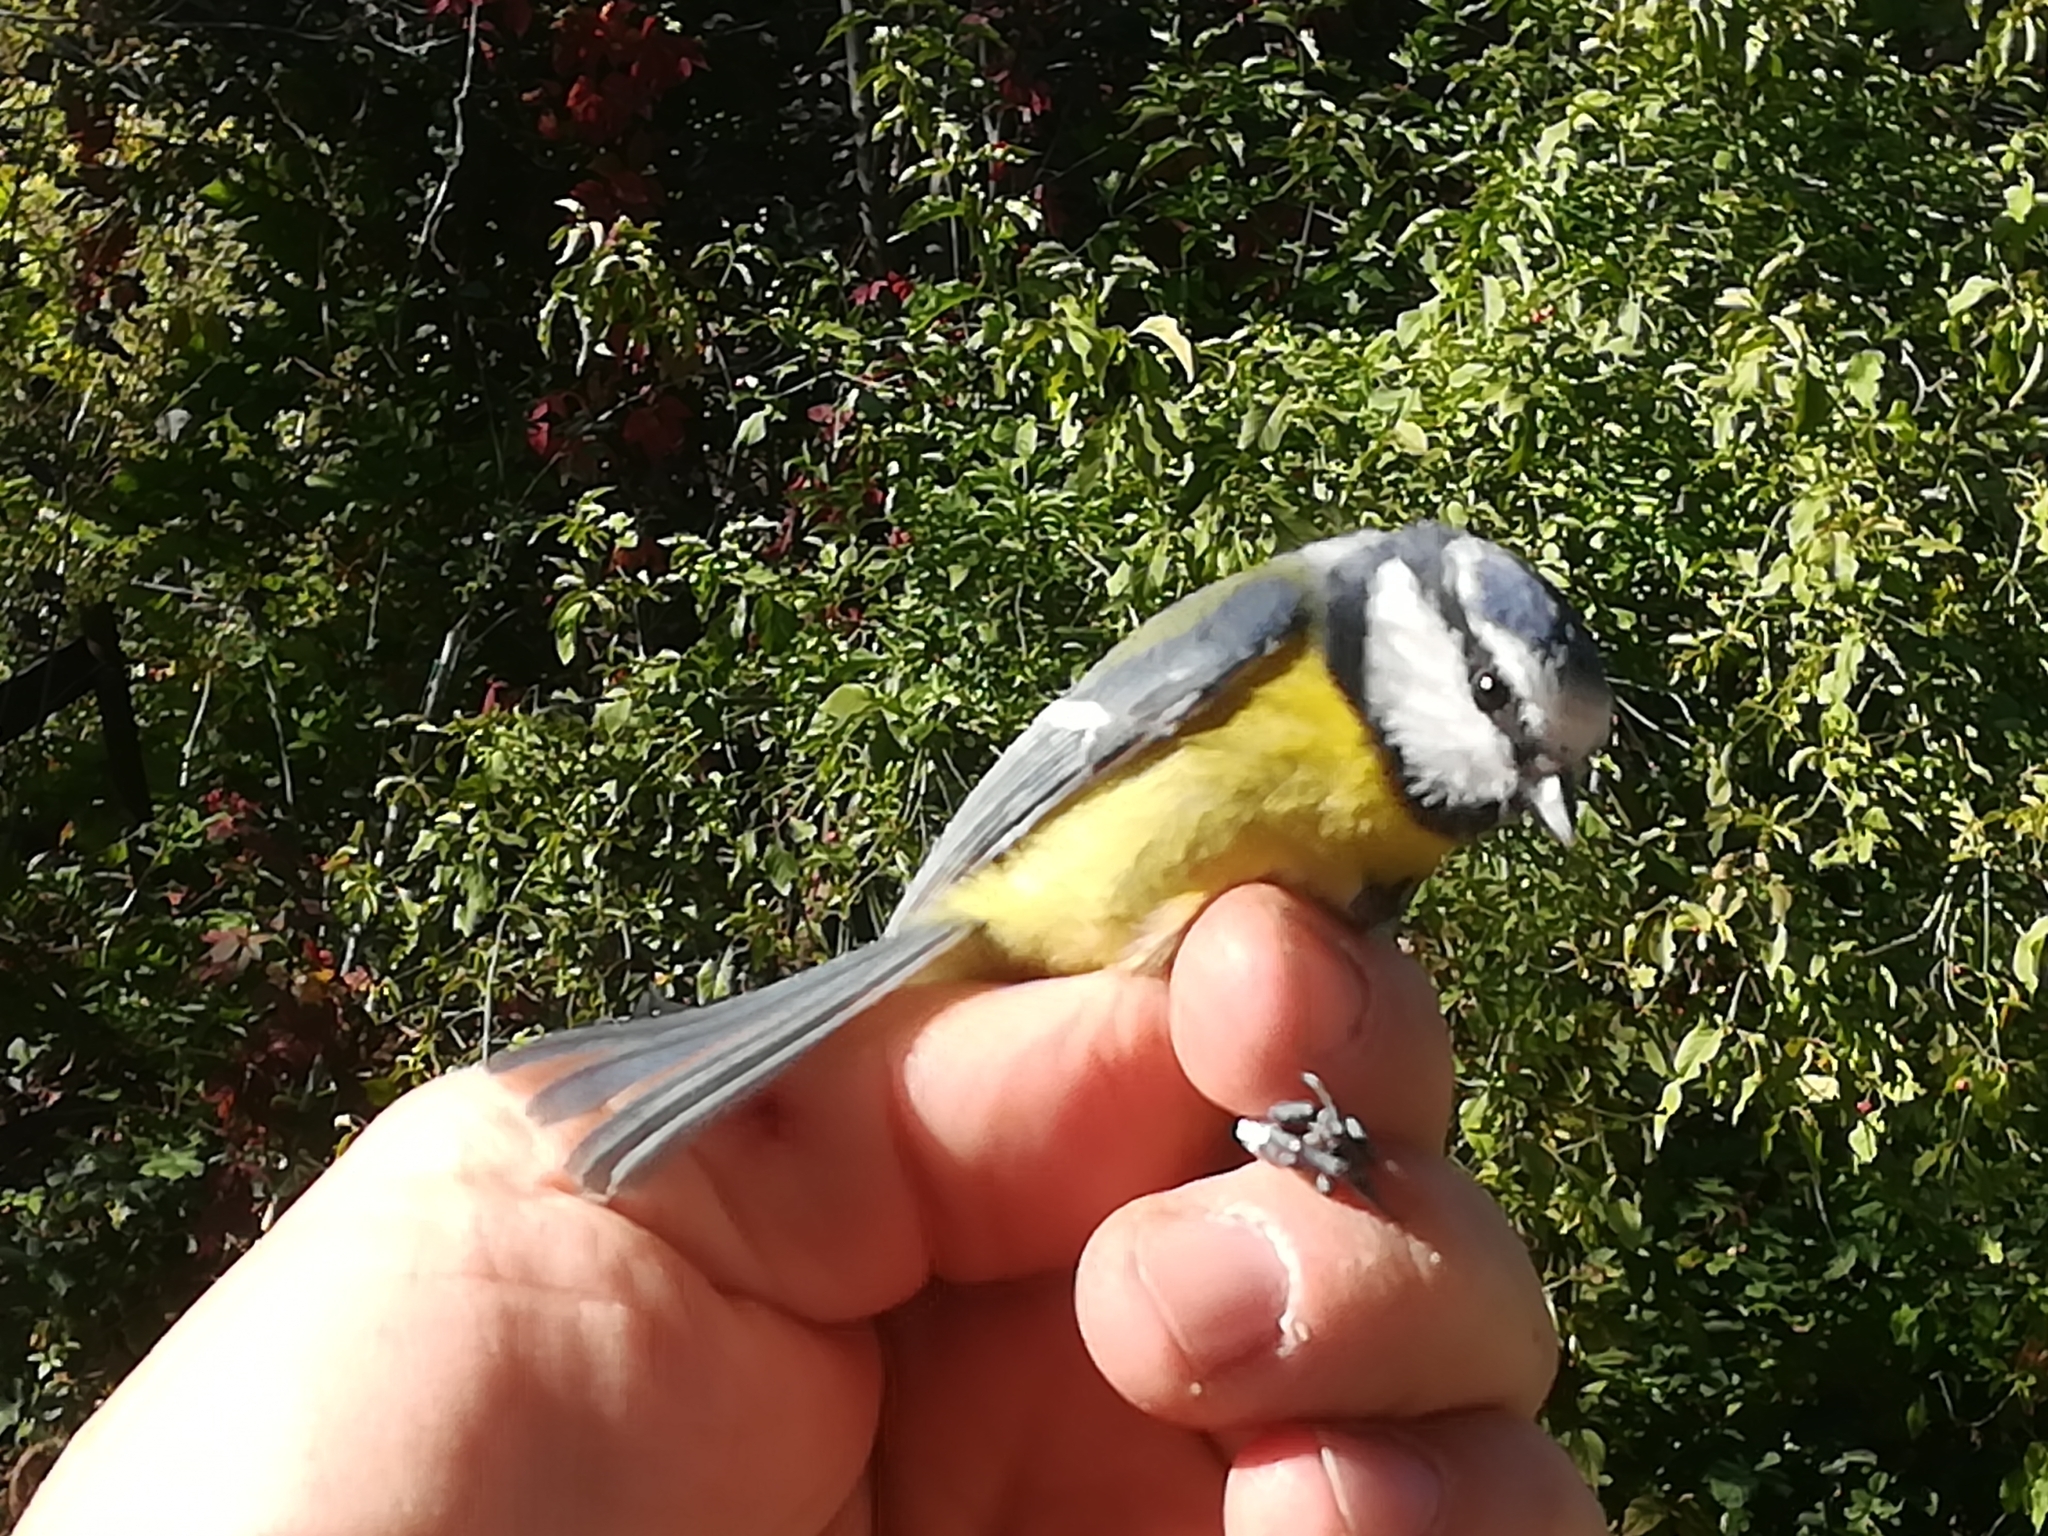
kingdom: Animalia
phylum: Chordata
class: Aves
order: Passeriformes
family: Paridae
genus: Cyanistes
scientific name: Cyanistes caeruleus
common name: Eurasian blue tit
